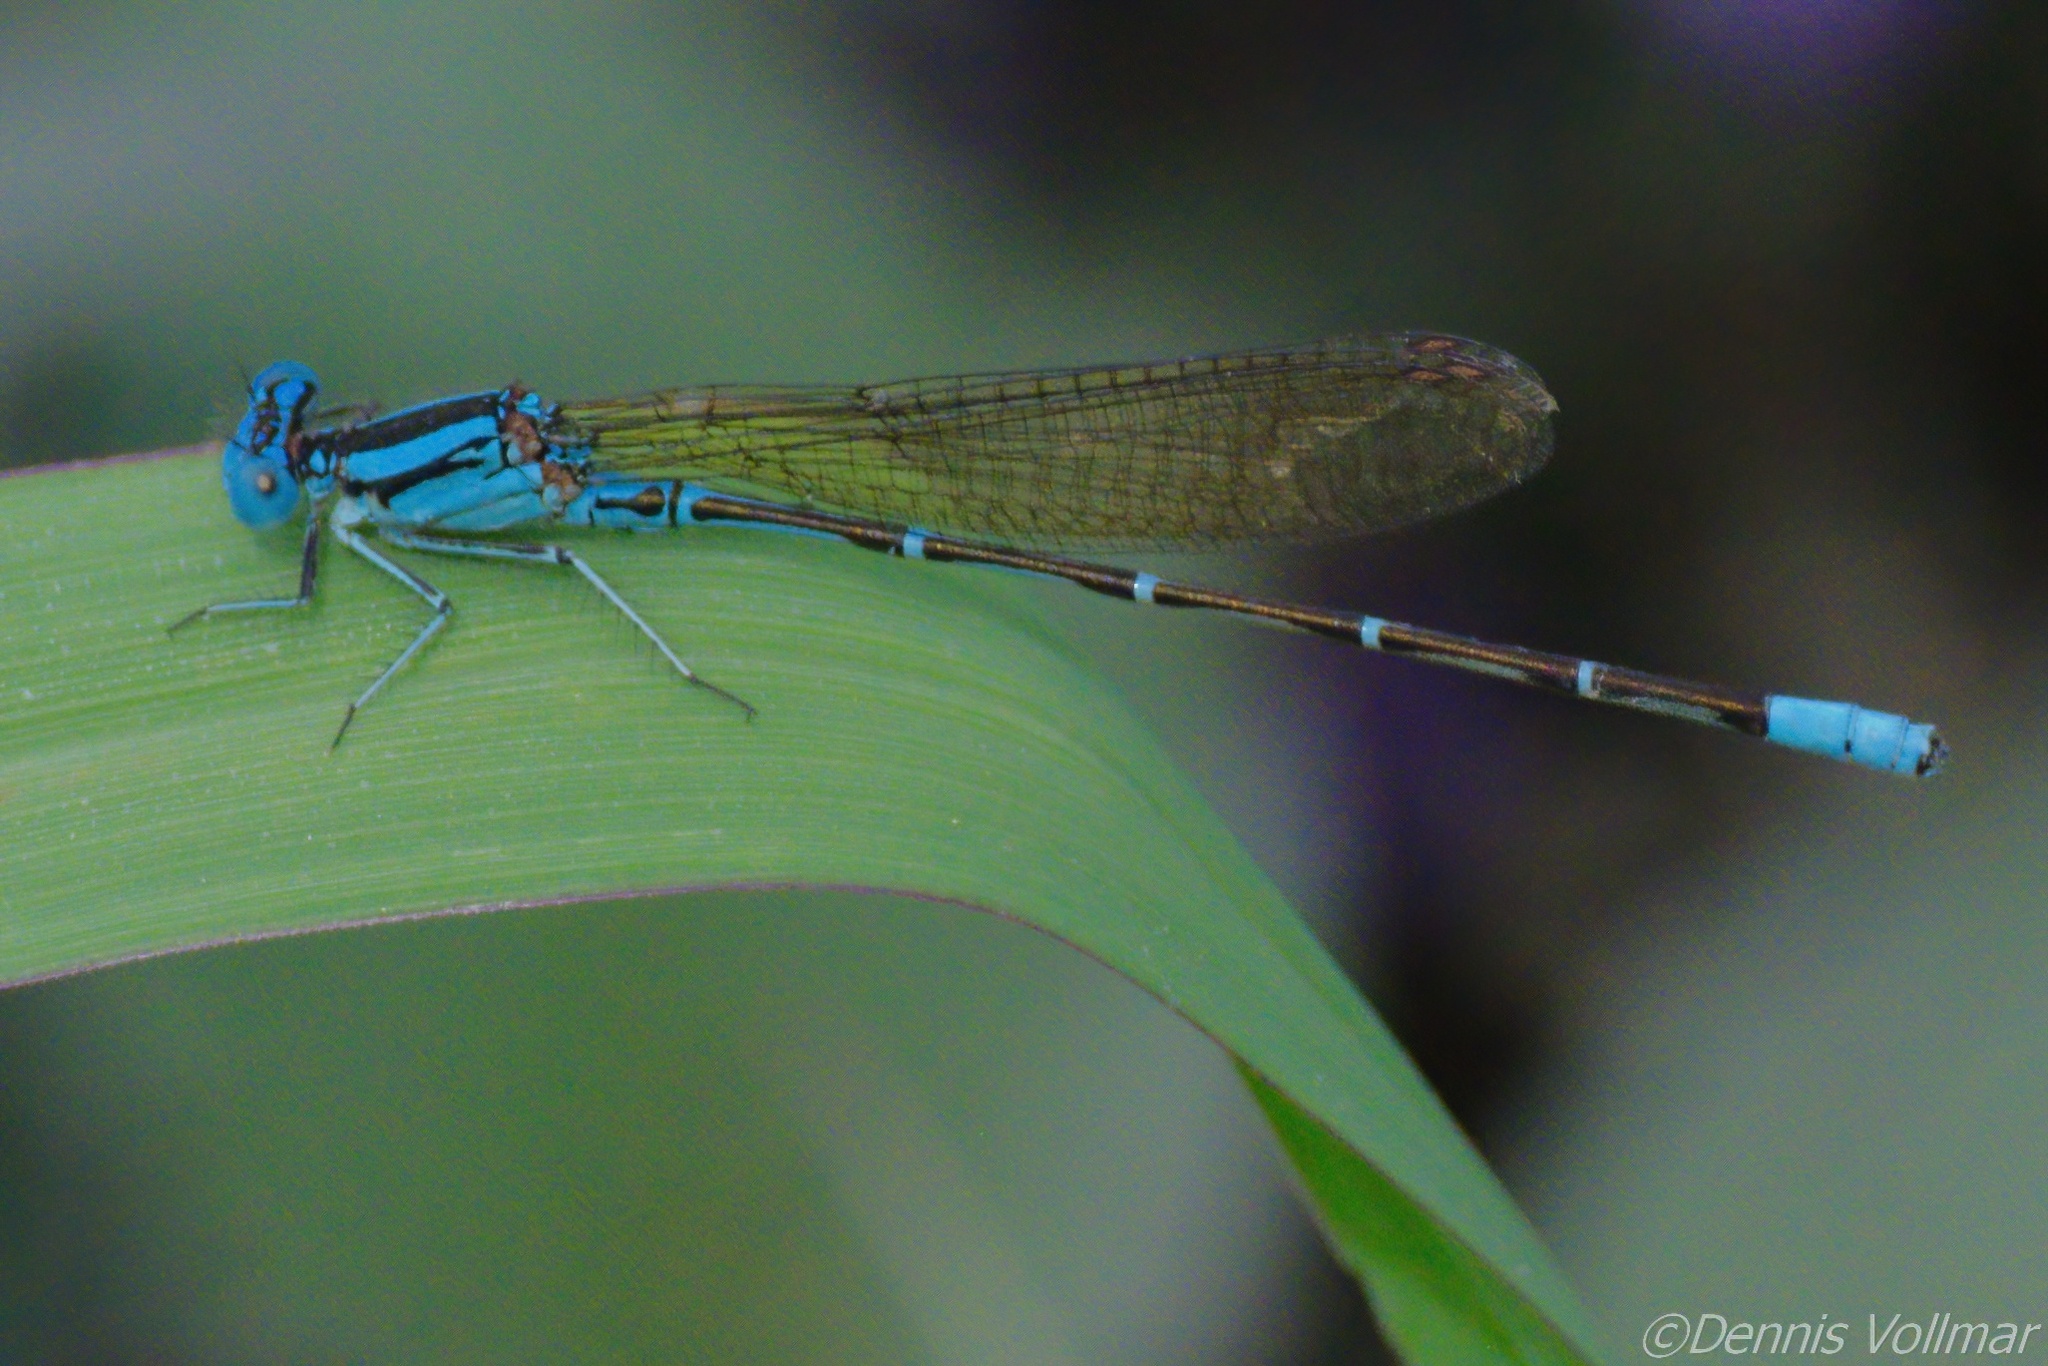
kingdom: Animalia
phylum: Arthropoda
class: Insecta
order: Odonata
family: Coenagrionidae
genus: Argia
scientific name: Argia rhoadsi
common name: Golden-winged dancer
